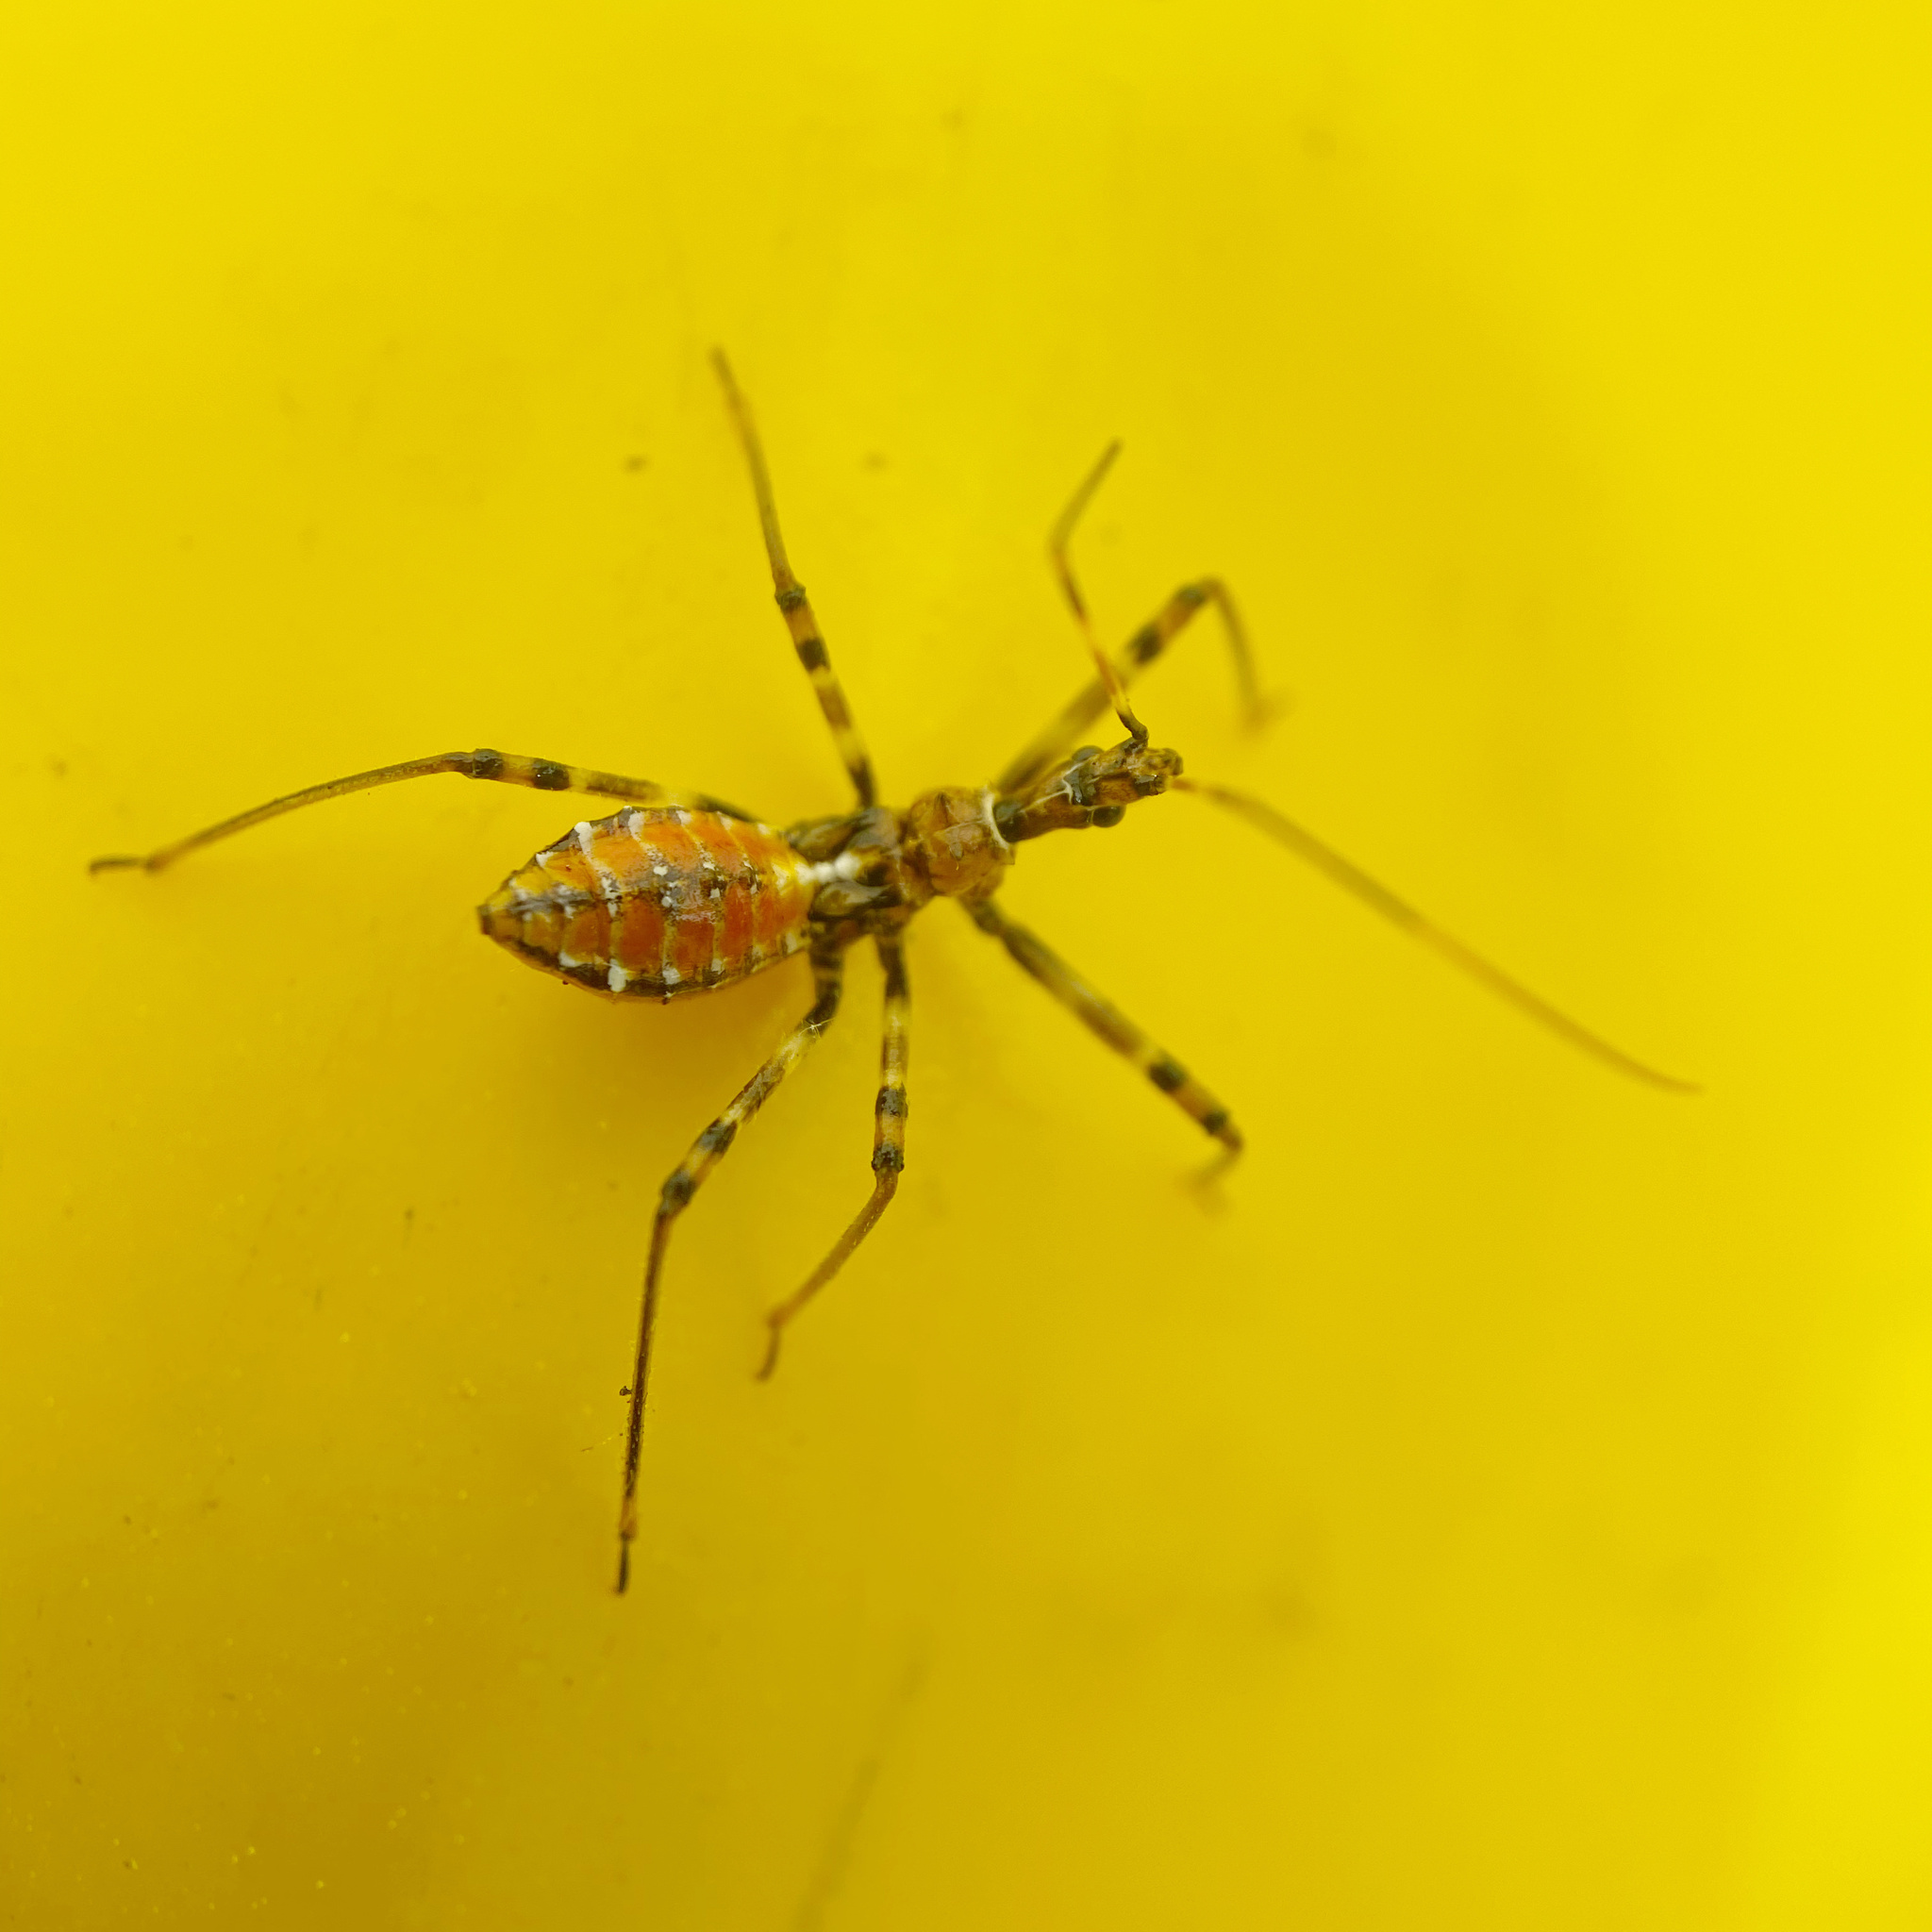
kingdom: Animalia
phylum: Arthropoda
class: Insecta
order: Hemiptera
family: Reduviidae
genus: Pristhesancus
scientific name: Pristhesancus plagipennis
